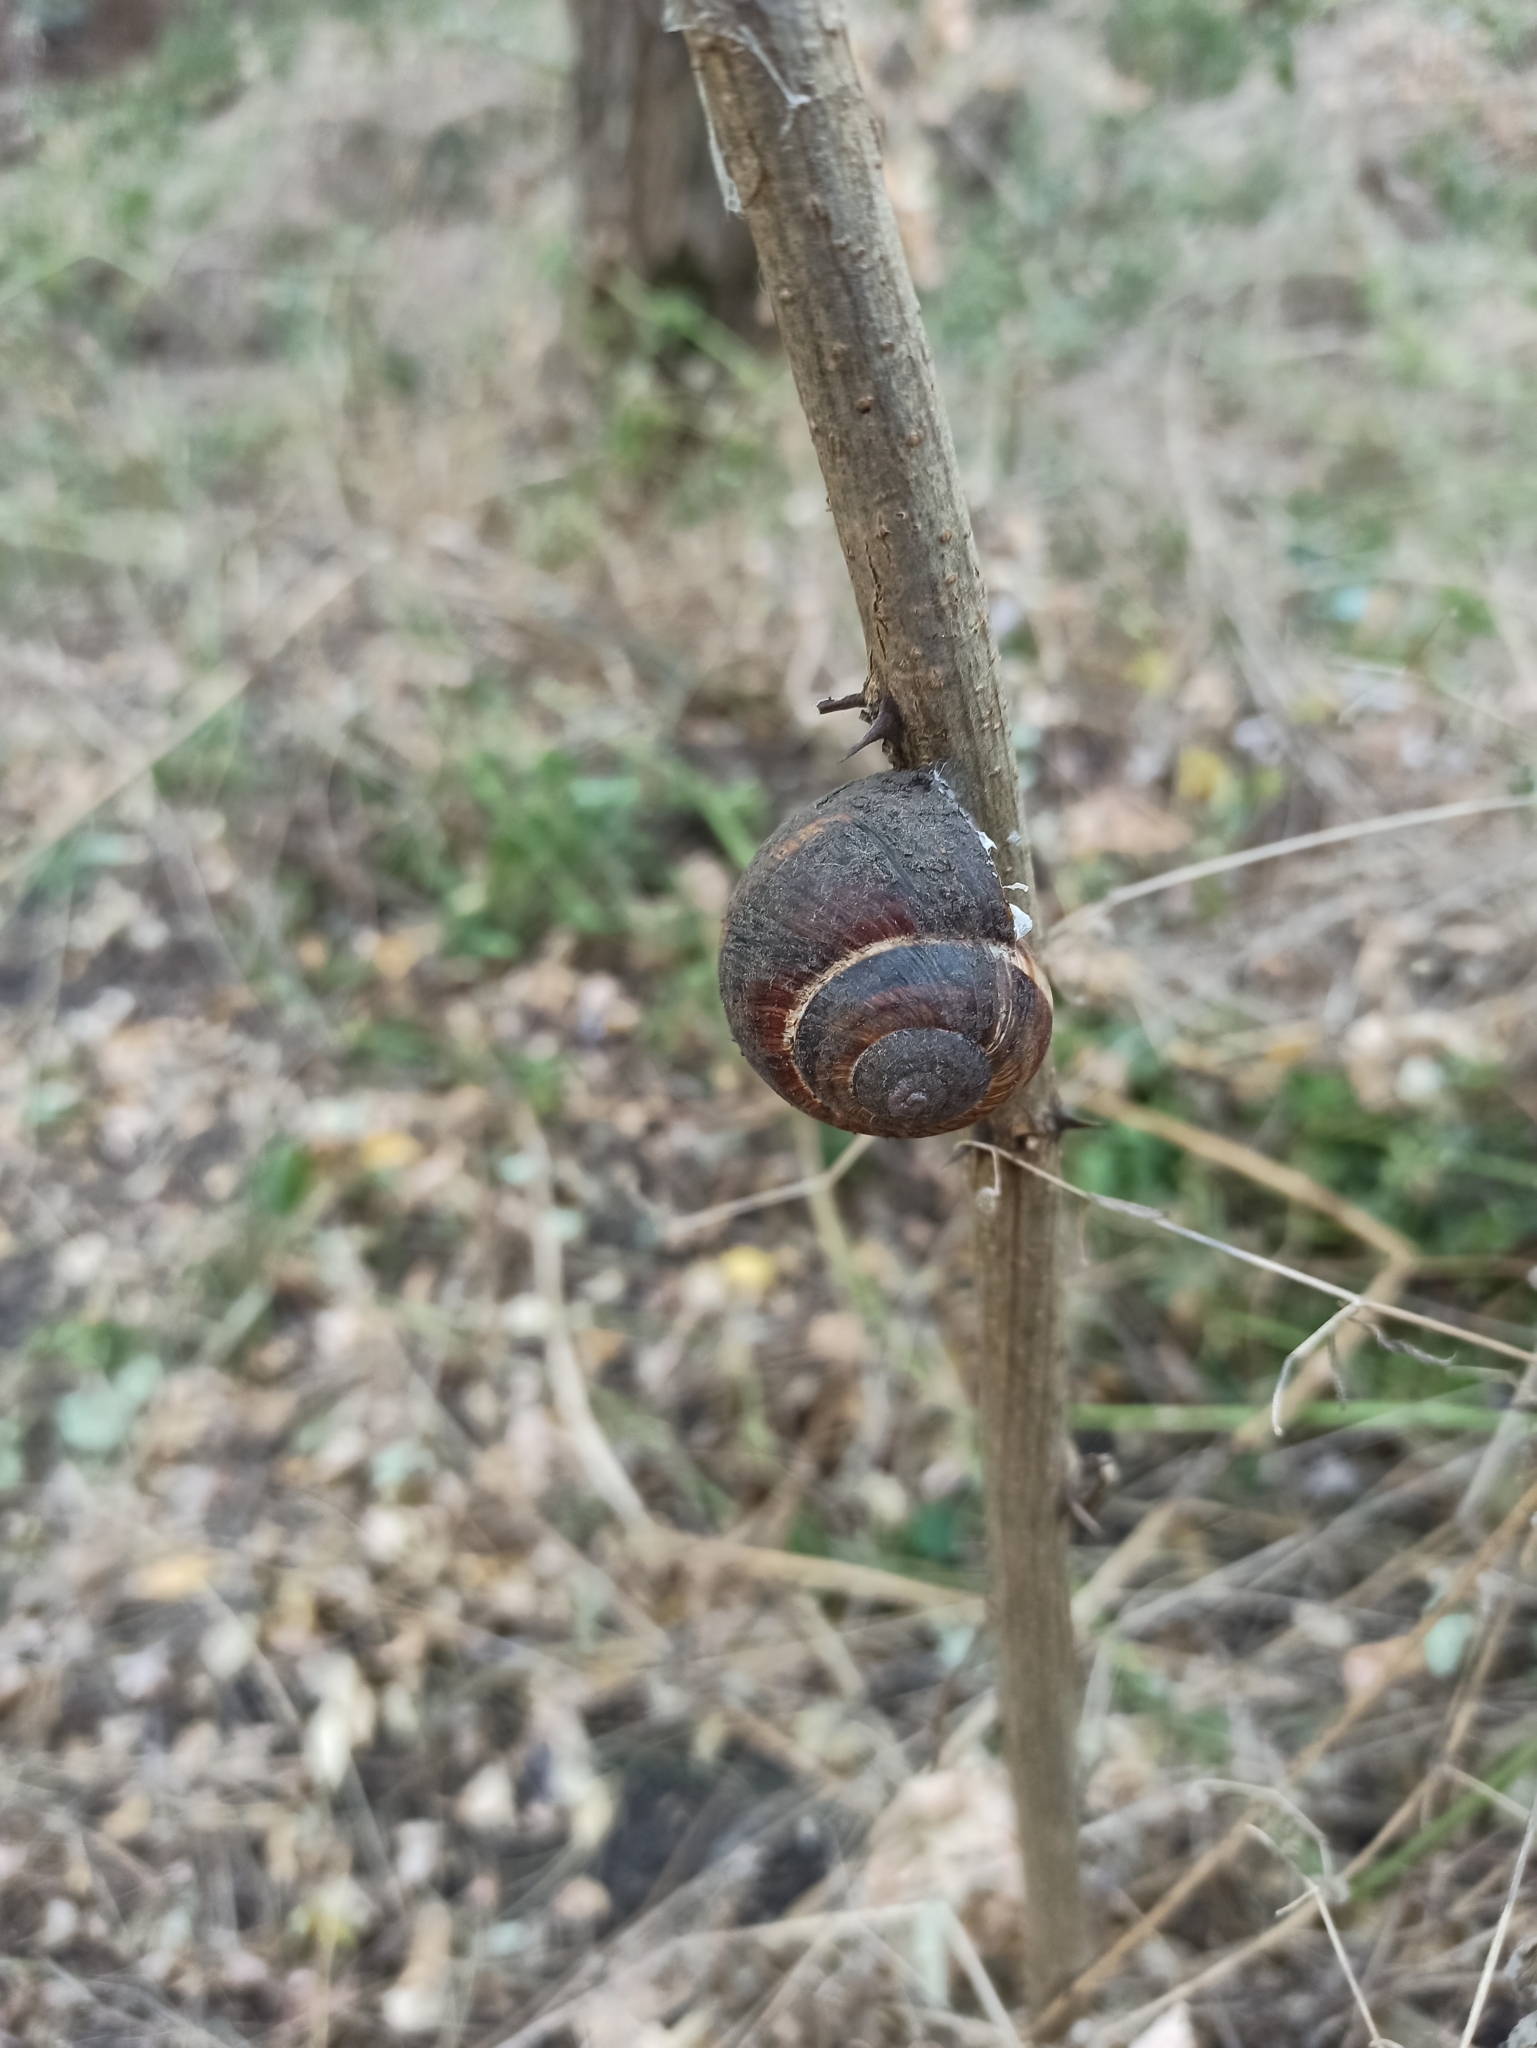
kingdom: Animalia
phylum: Mollusca
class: Gastropoda
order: Stylommatophora
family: Helicidae
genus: Helix
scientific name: Helix lucorum
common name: Turkish snail
